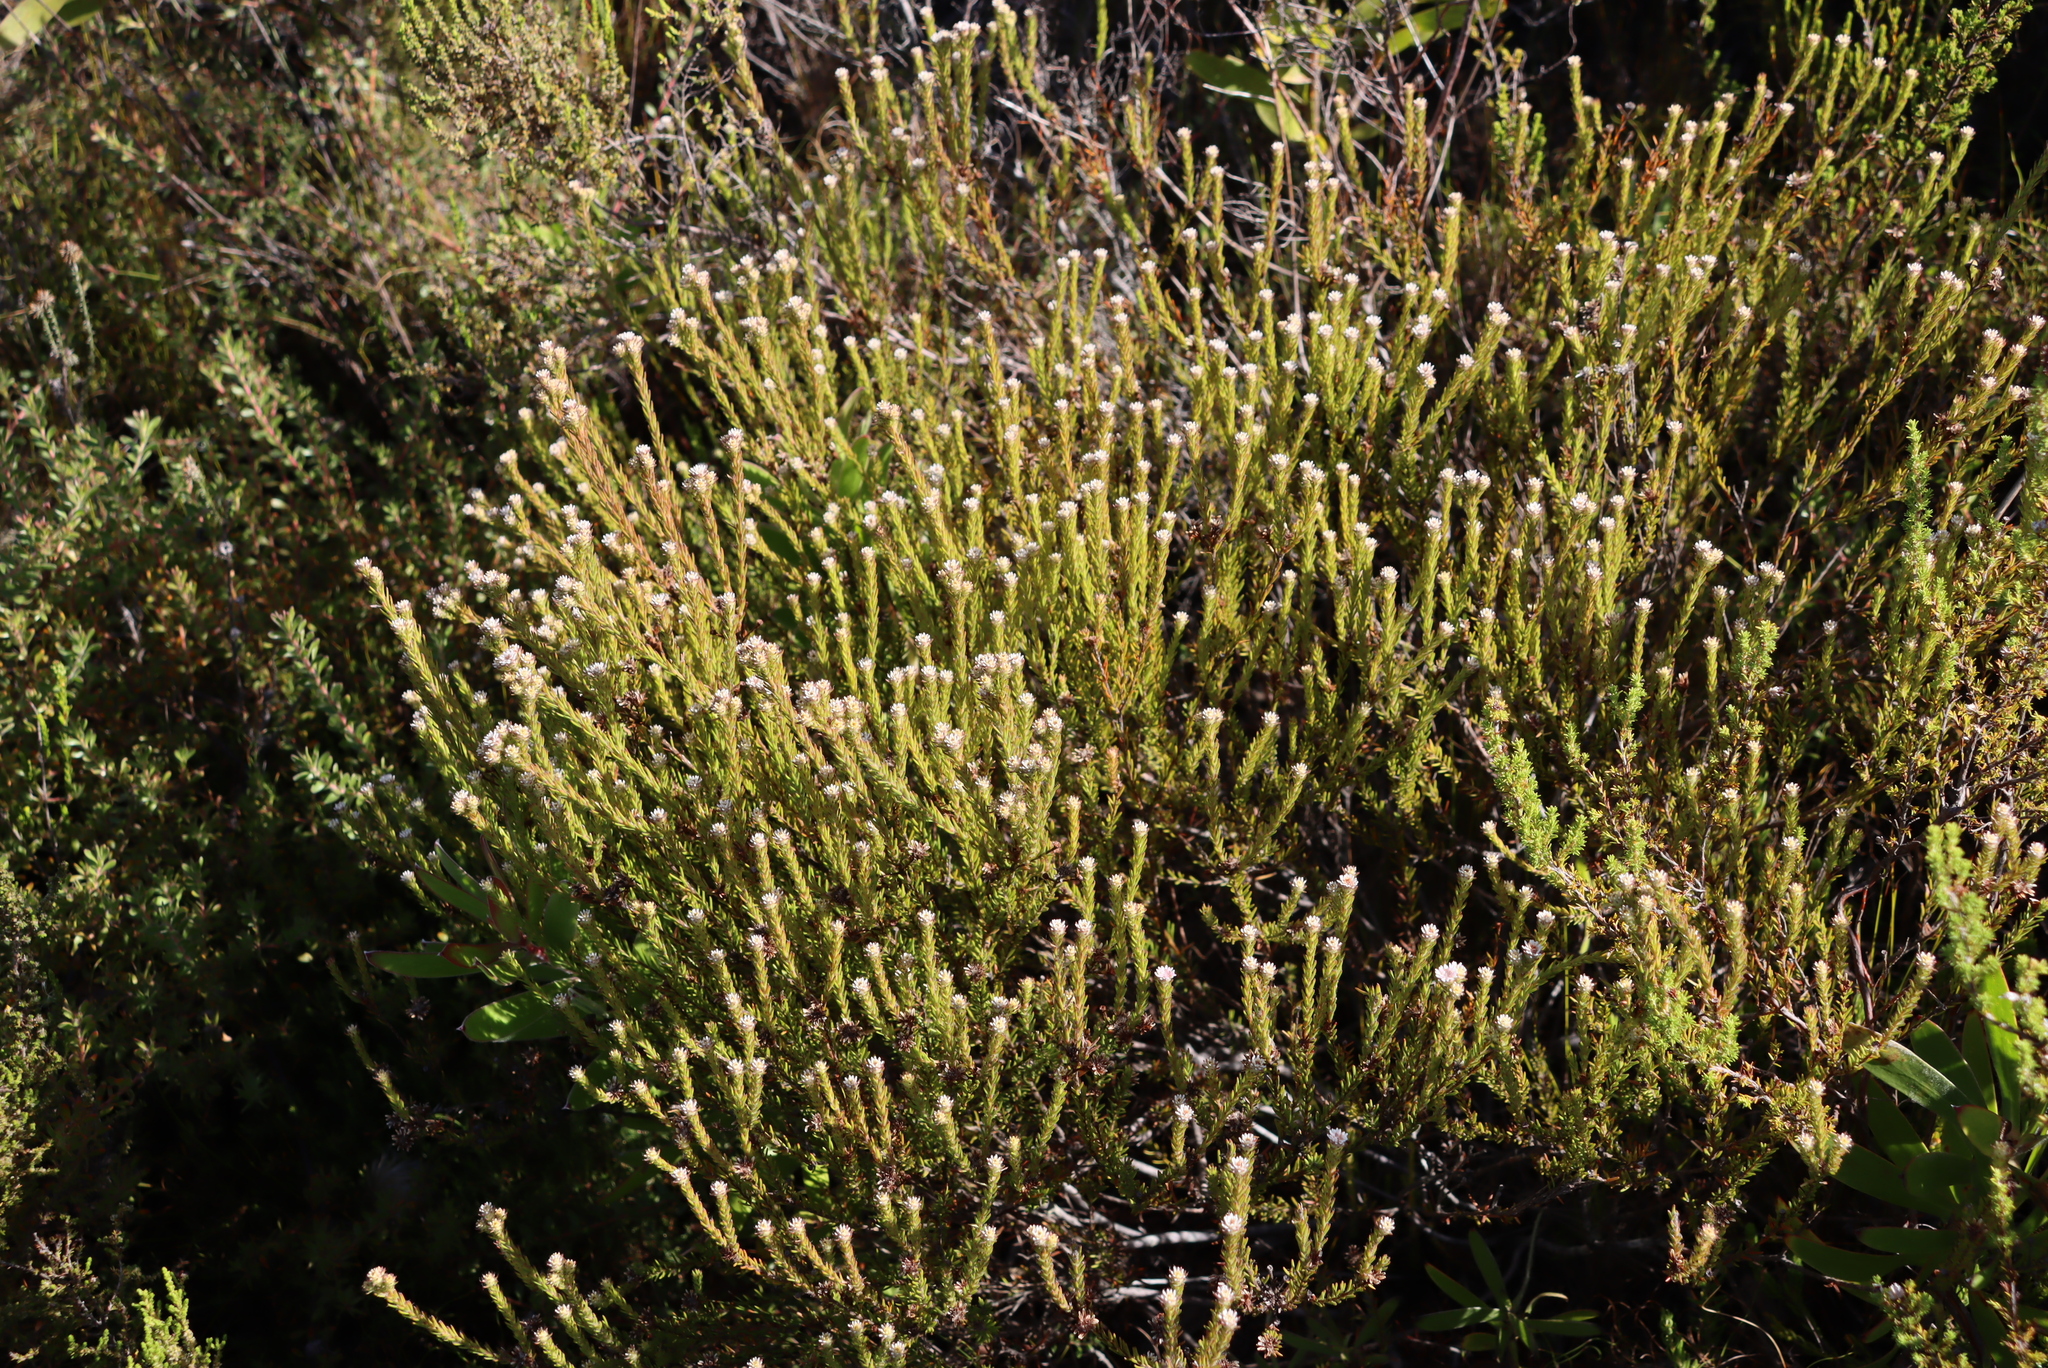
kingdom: Plantae
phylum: Tracheophyta
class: Magnoliopsida
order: Bruniales
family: Bruniaceae
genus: Staavia
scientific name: Staavia radiata
